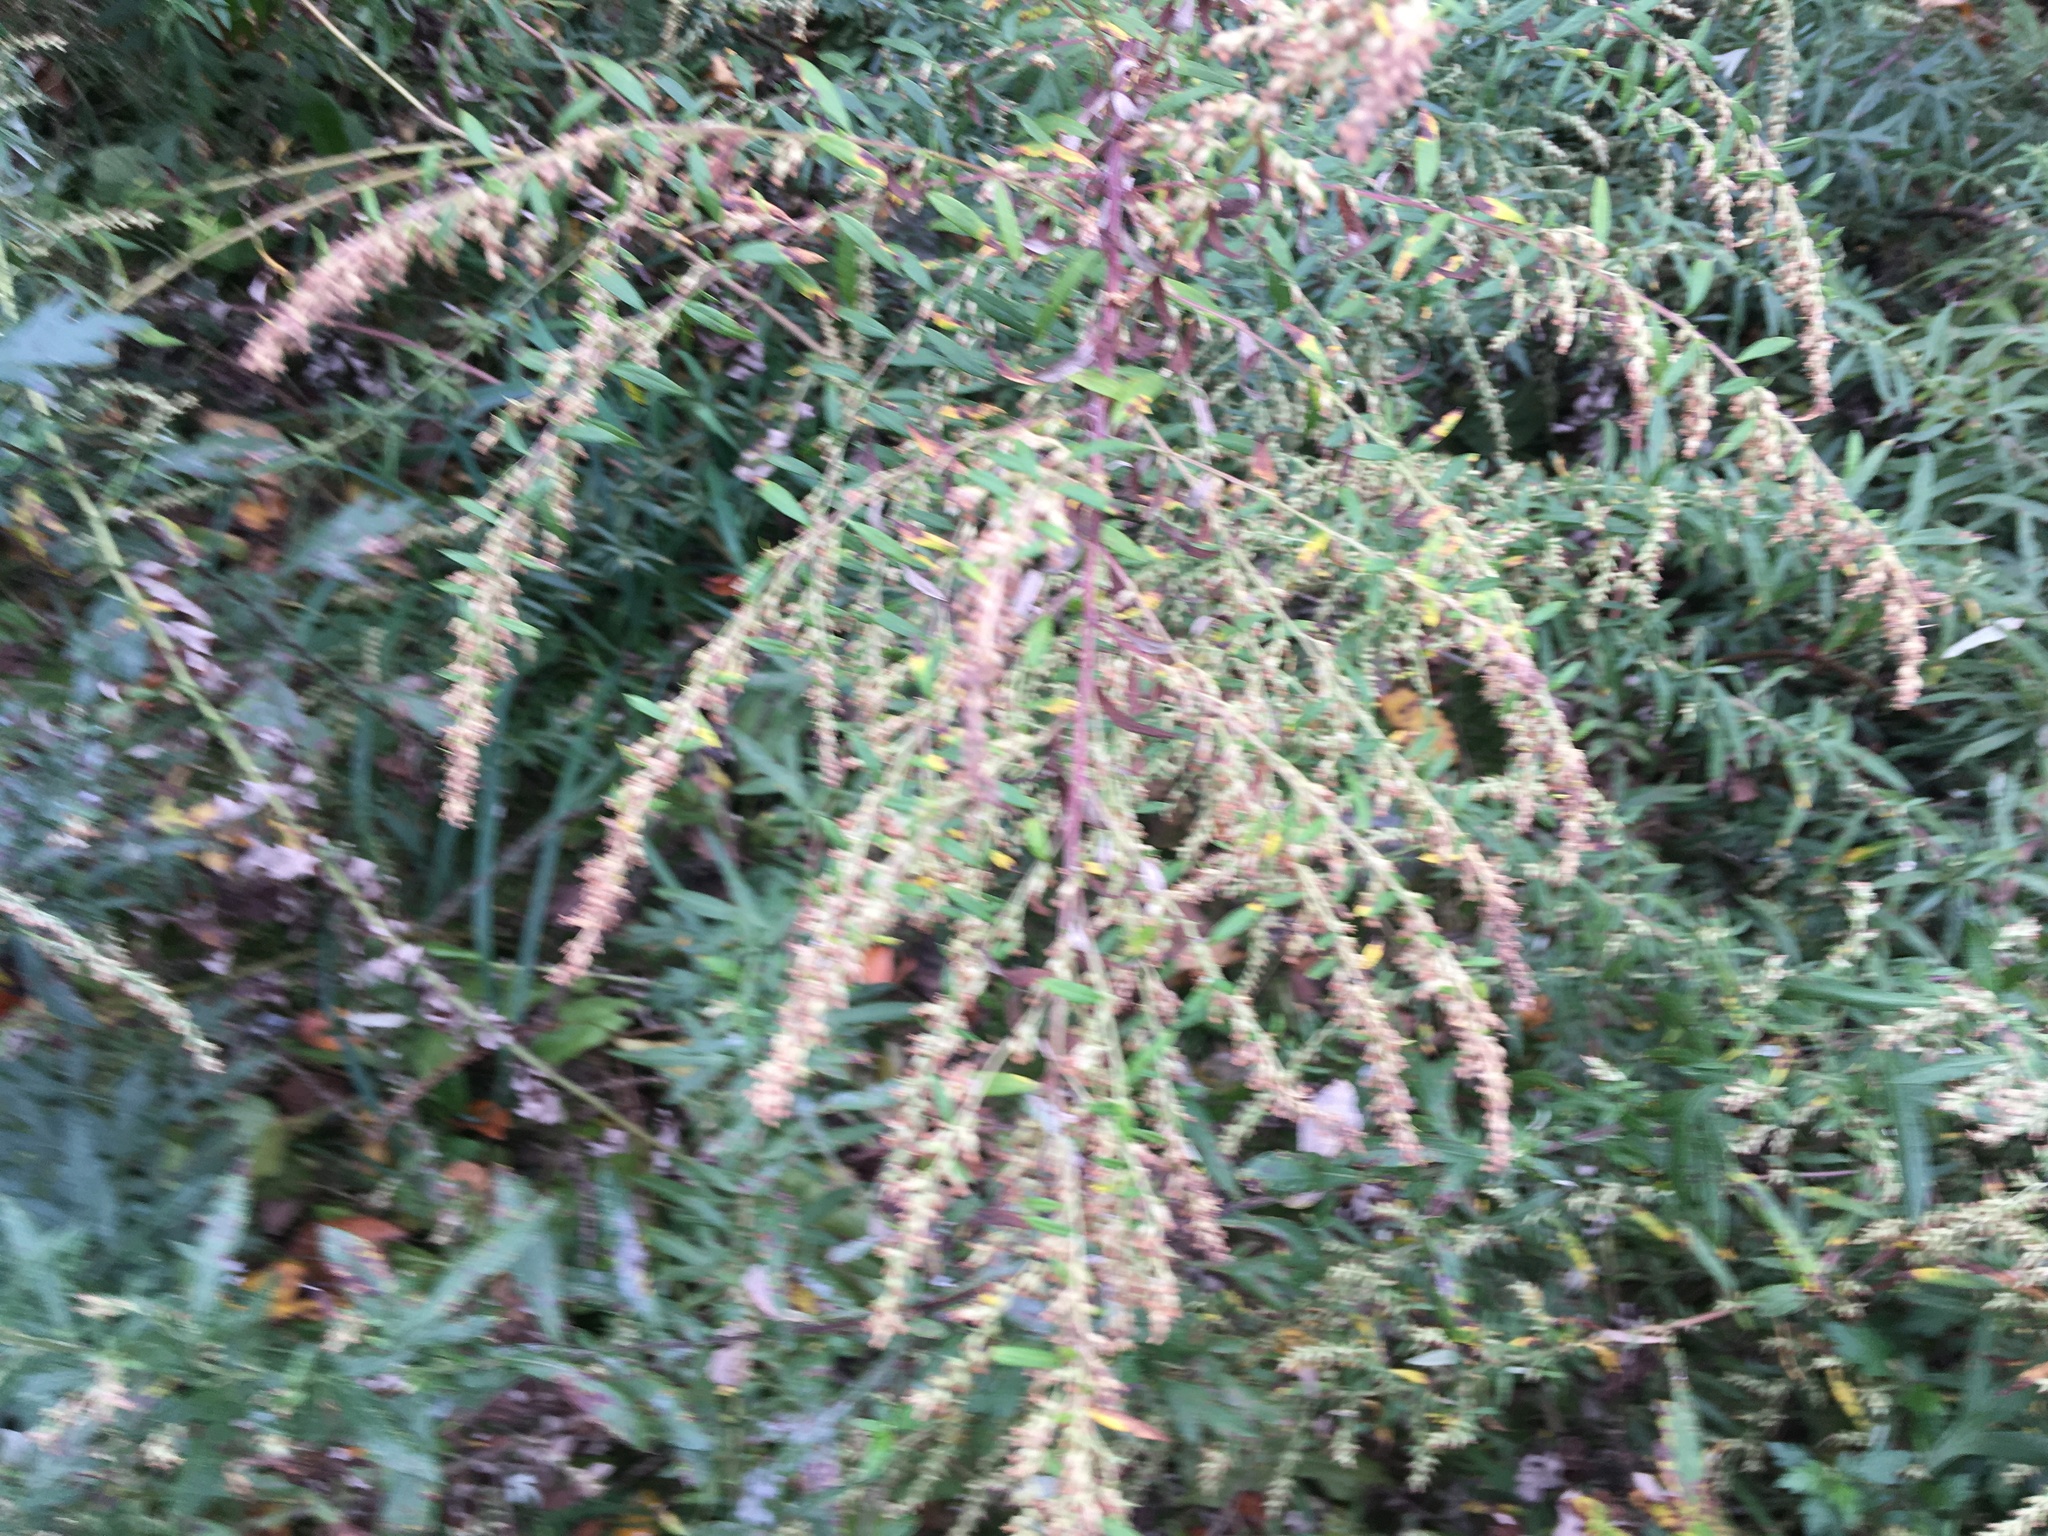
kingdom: Plantae
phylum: Tracheophyta
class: Magnoliopsida
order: Asterales
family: Asteraceae
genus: Artemisia
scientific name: Artemisia vulgaris
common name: Mugwort
